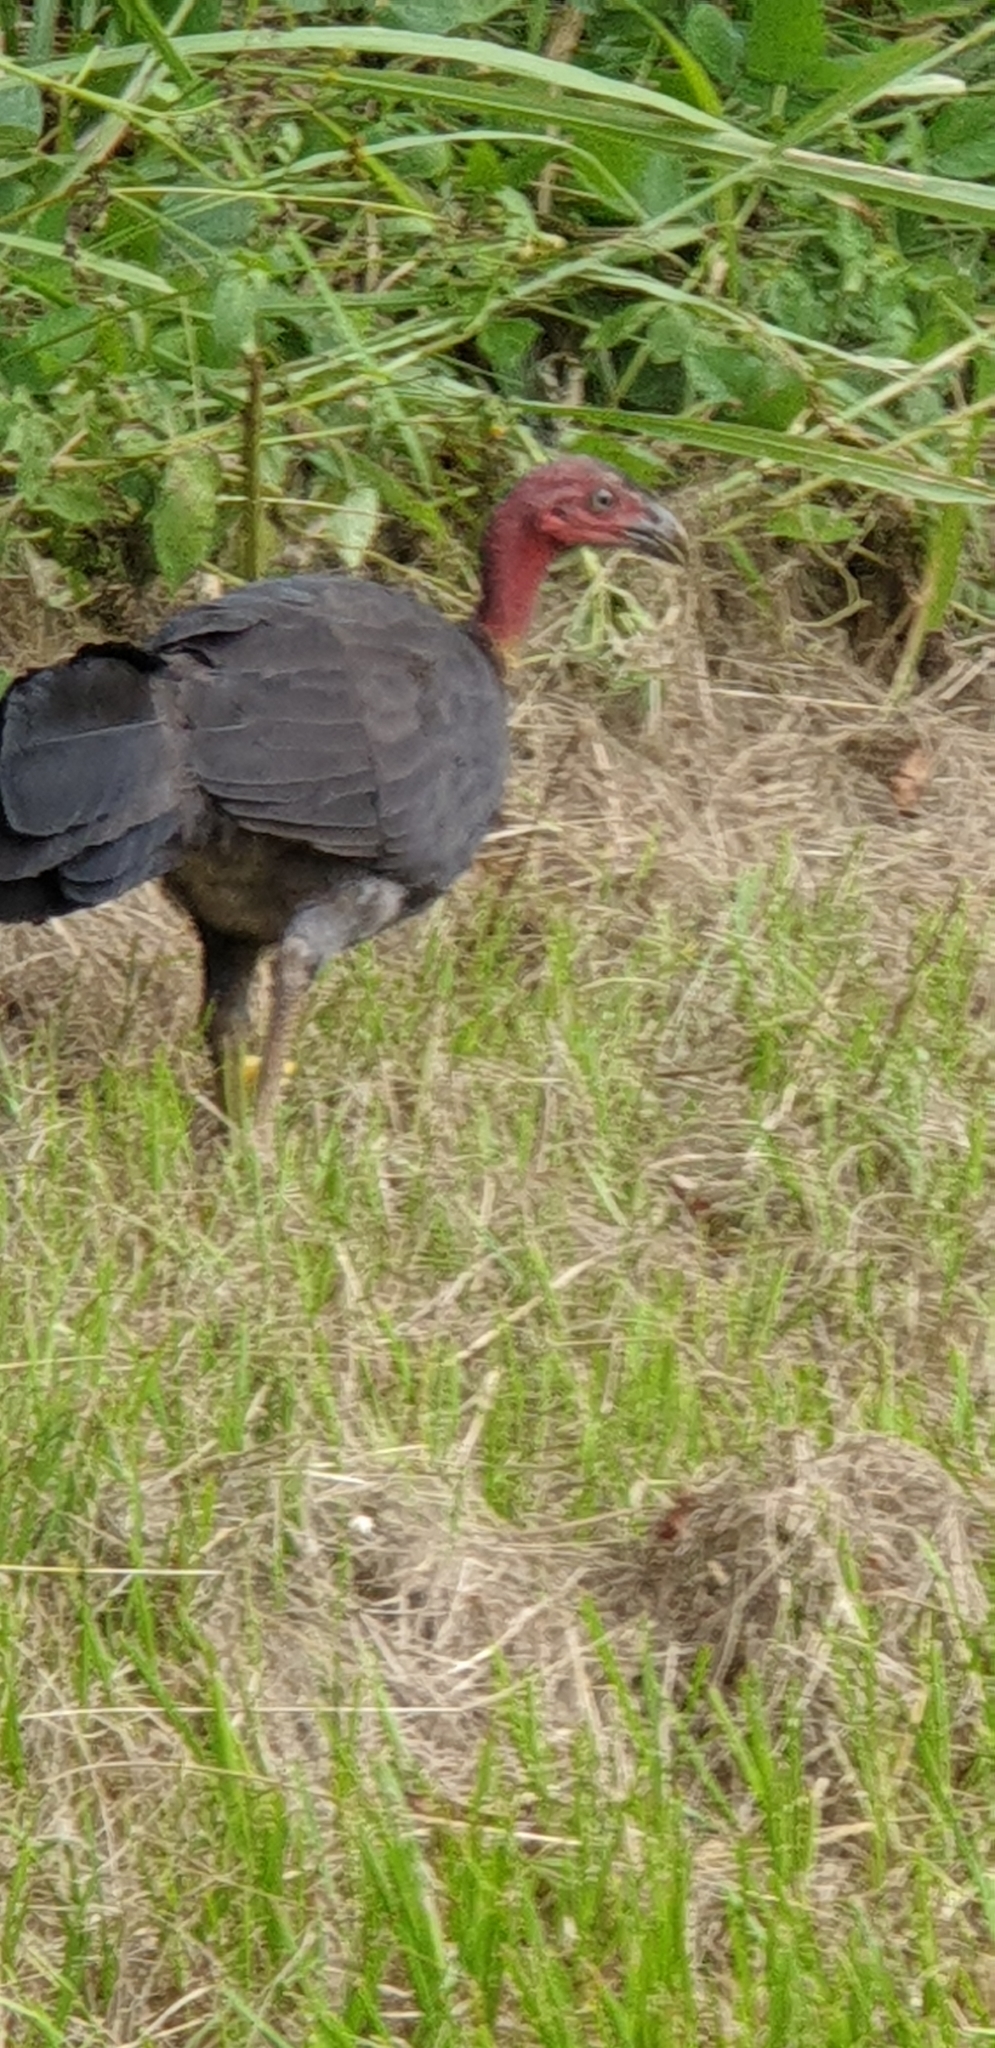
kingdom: Animalia
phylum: Chordata
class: Aves
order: Galliformes
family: Megapodiidae
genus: Alectura
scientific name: Alectura lathami
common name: Australian brushturkey
